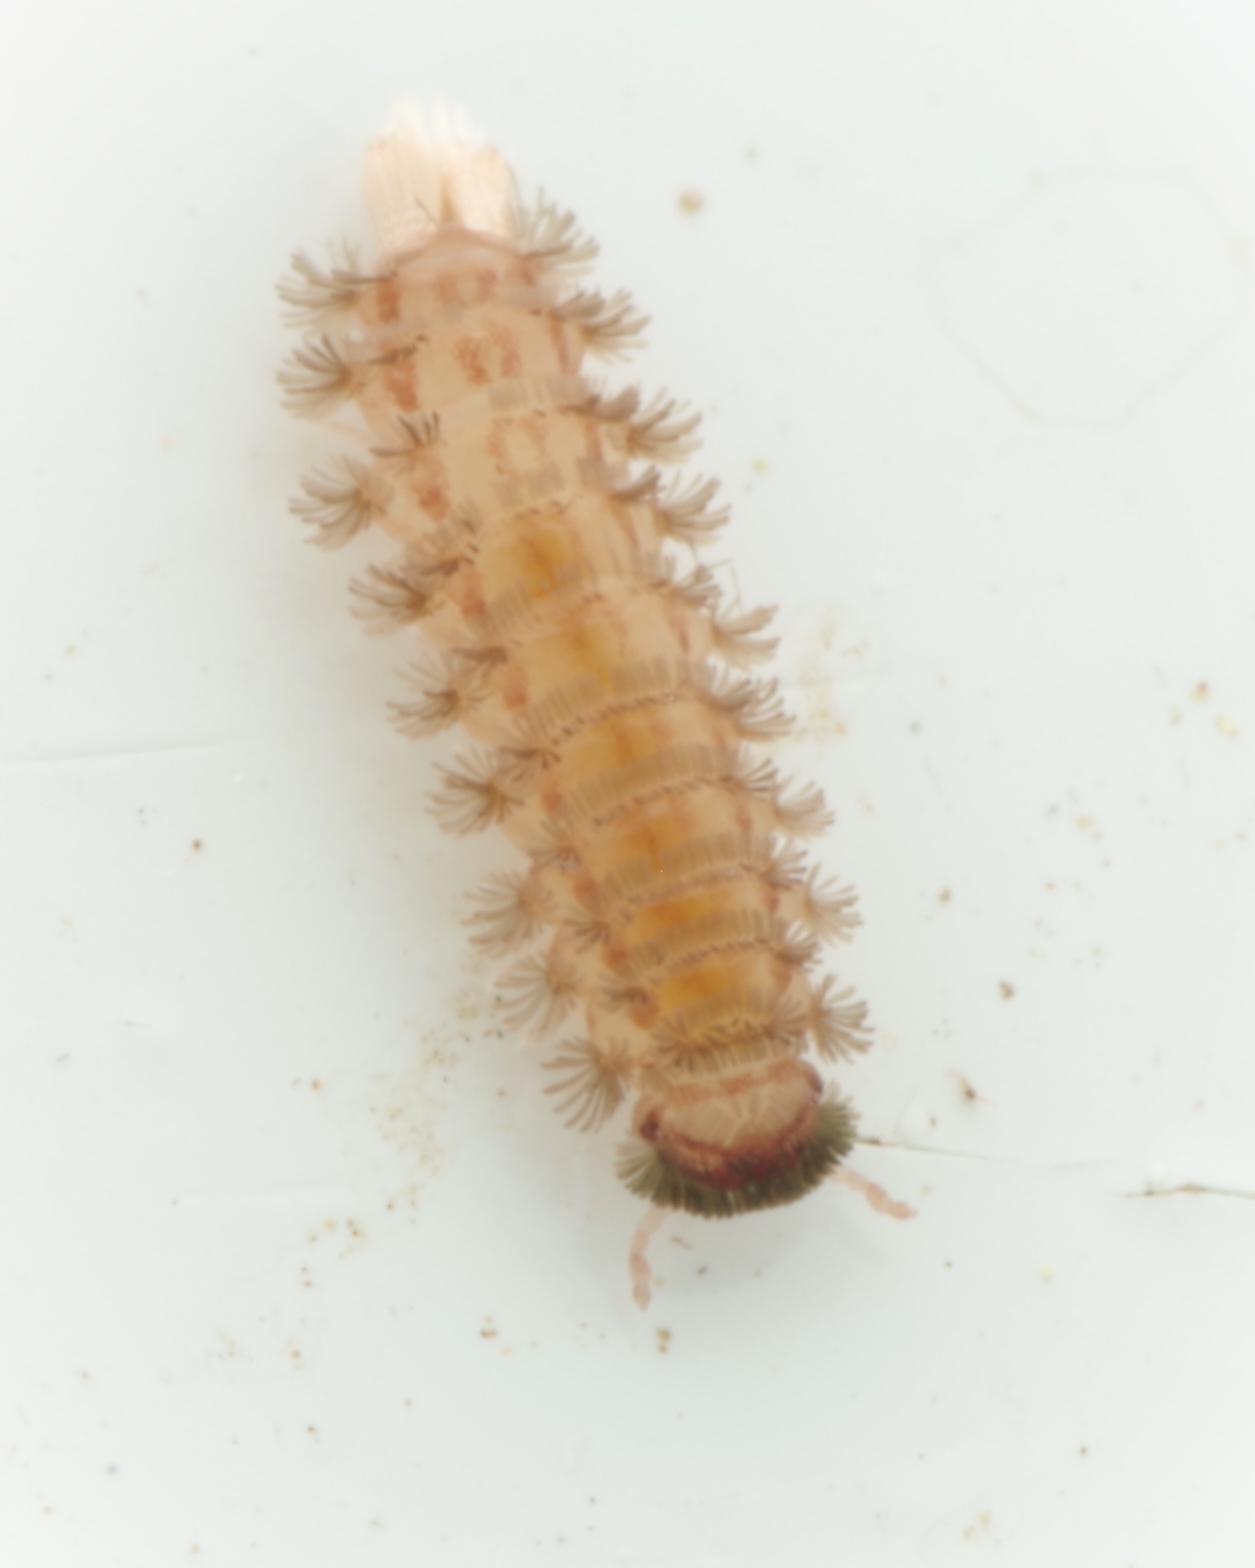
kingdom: Animalia
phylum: Arthropoda
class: Diplopoda
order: Polyxenida
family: Polyxenidae
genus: Polyxenus
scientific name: Polyxenus lagurus
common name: Bristly millipede
